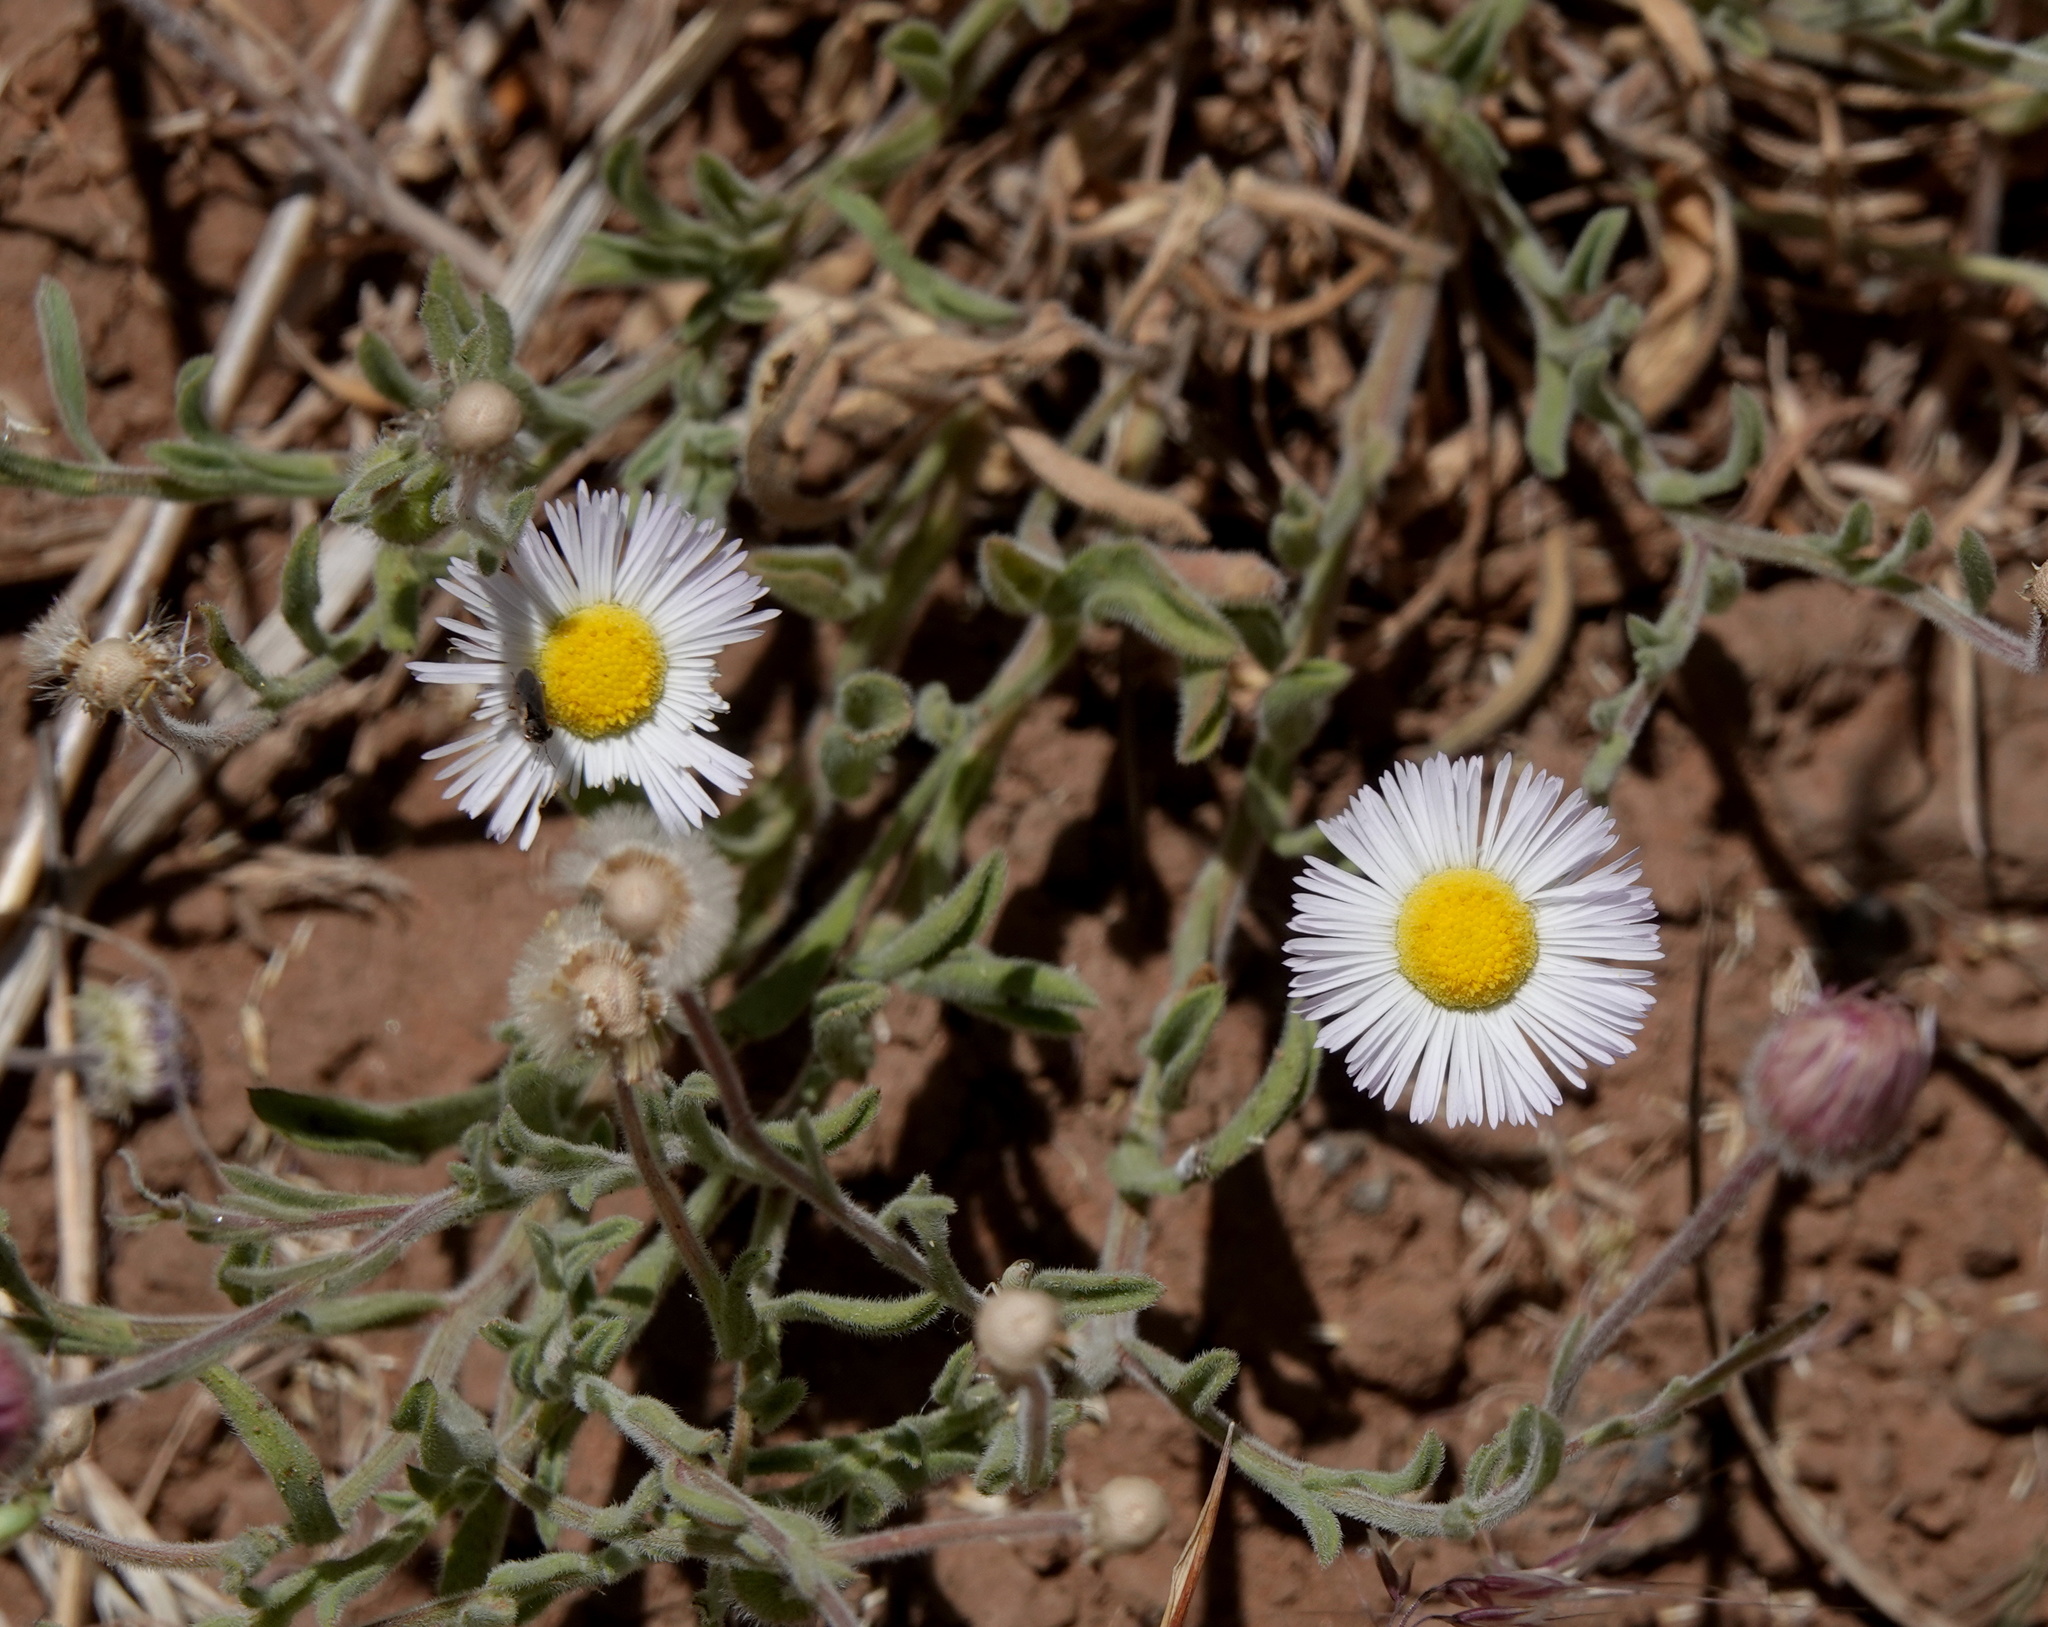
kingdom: Plantae
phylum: Tracheophyta
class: Magnoliopsida
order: Asterales
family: Asteraceae
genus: Erigeron
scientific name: Erigeron divergens
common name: Diffuse fleabane
